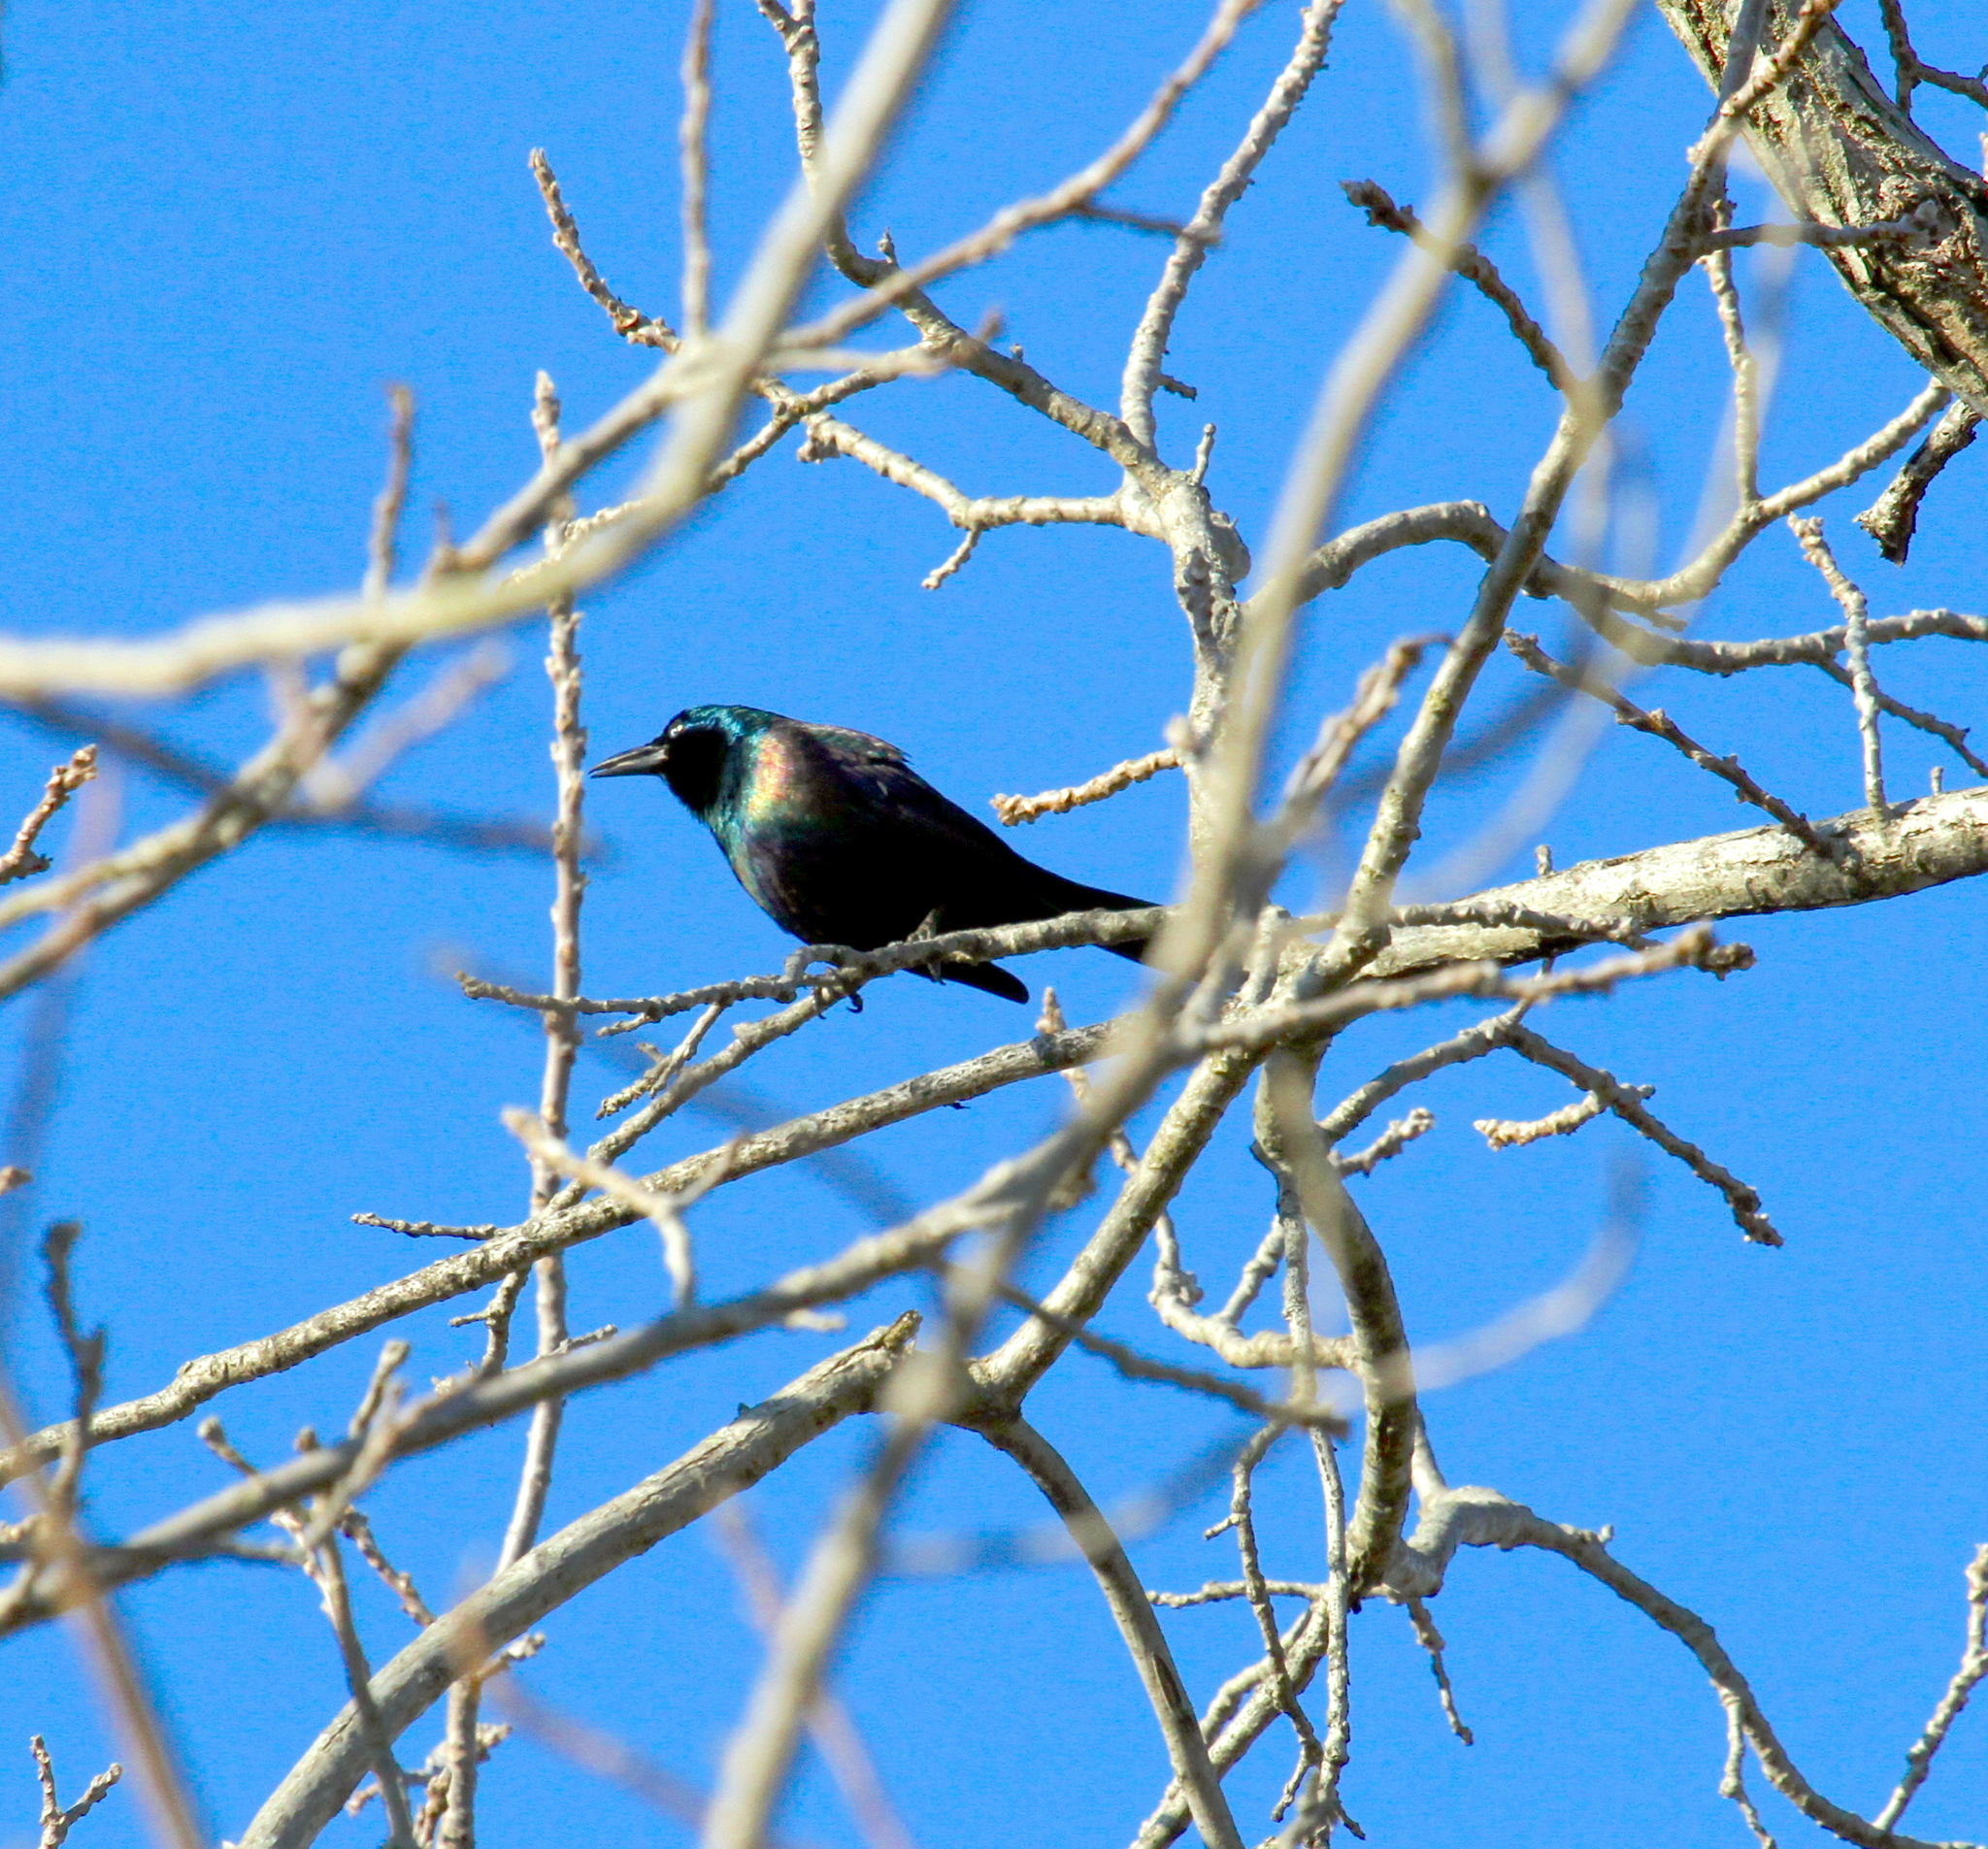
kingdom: Animalia
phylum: Chordata
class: Aves
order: Passeriformes
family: Icteridae
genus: Quiscalus
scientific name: Quiscalus quiscula
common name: Common grackle
